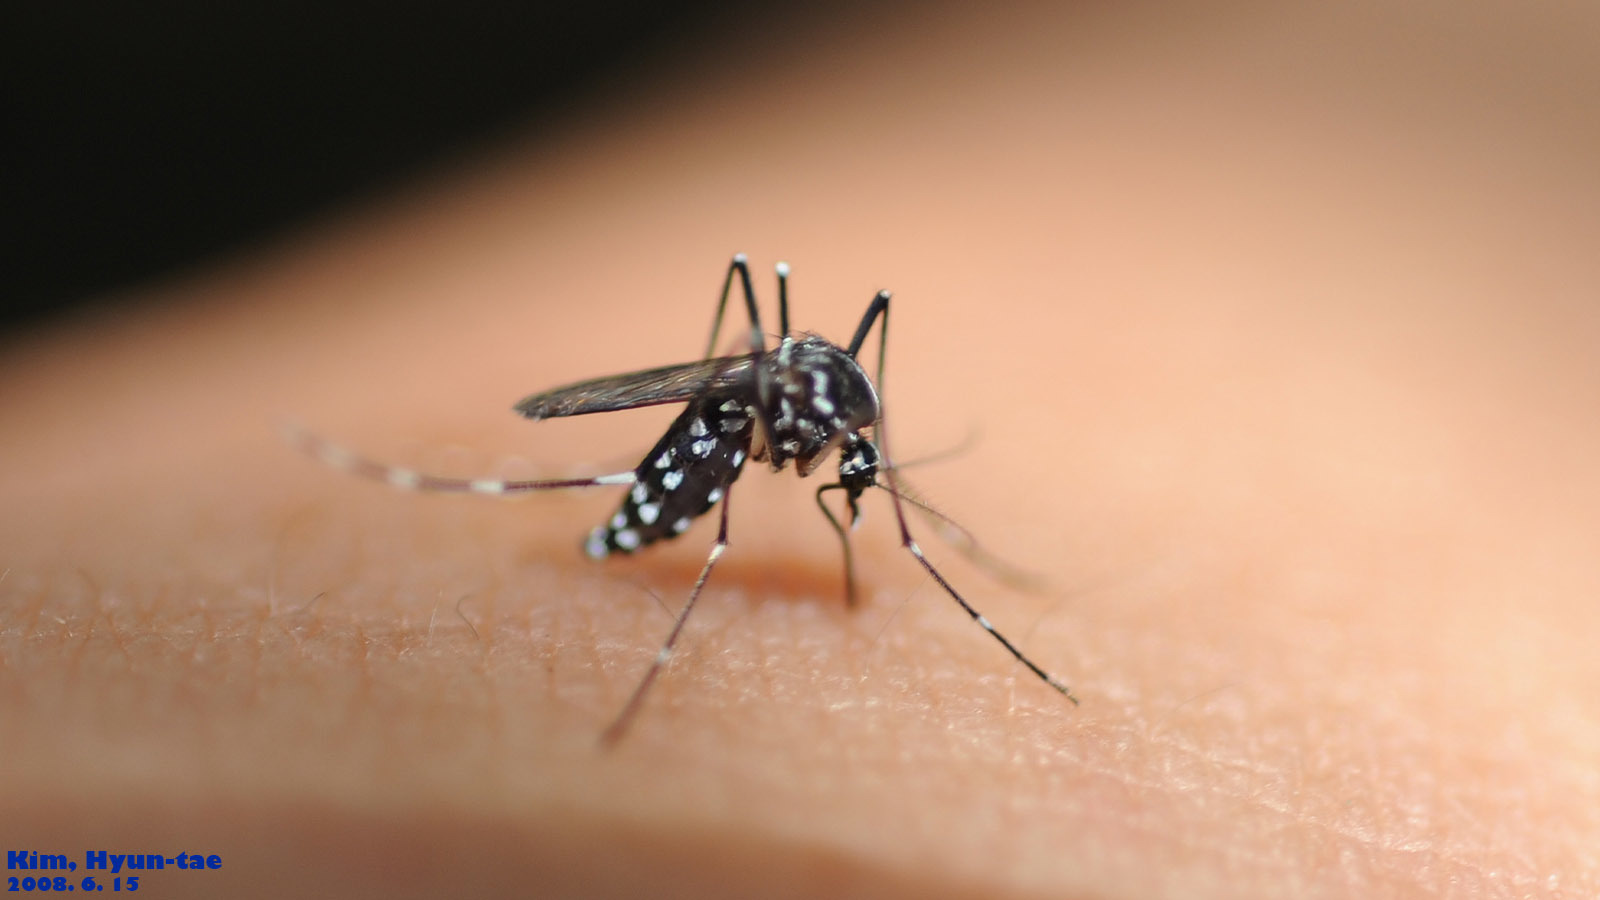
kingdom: Animalia
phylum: Arthropoda
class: Insecta
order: Diptera
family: Culicidae
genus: Aedes
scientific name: Aedes albopictus
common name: Tiger mosquito
